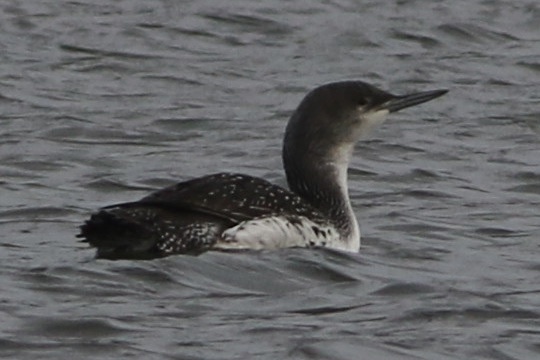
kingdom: Animalia
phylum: Chordata
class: Aves
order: Gaviiformes
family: Gaviidae
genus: Gavia
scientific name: Gavia stellata
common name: Red-throated loon
